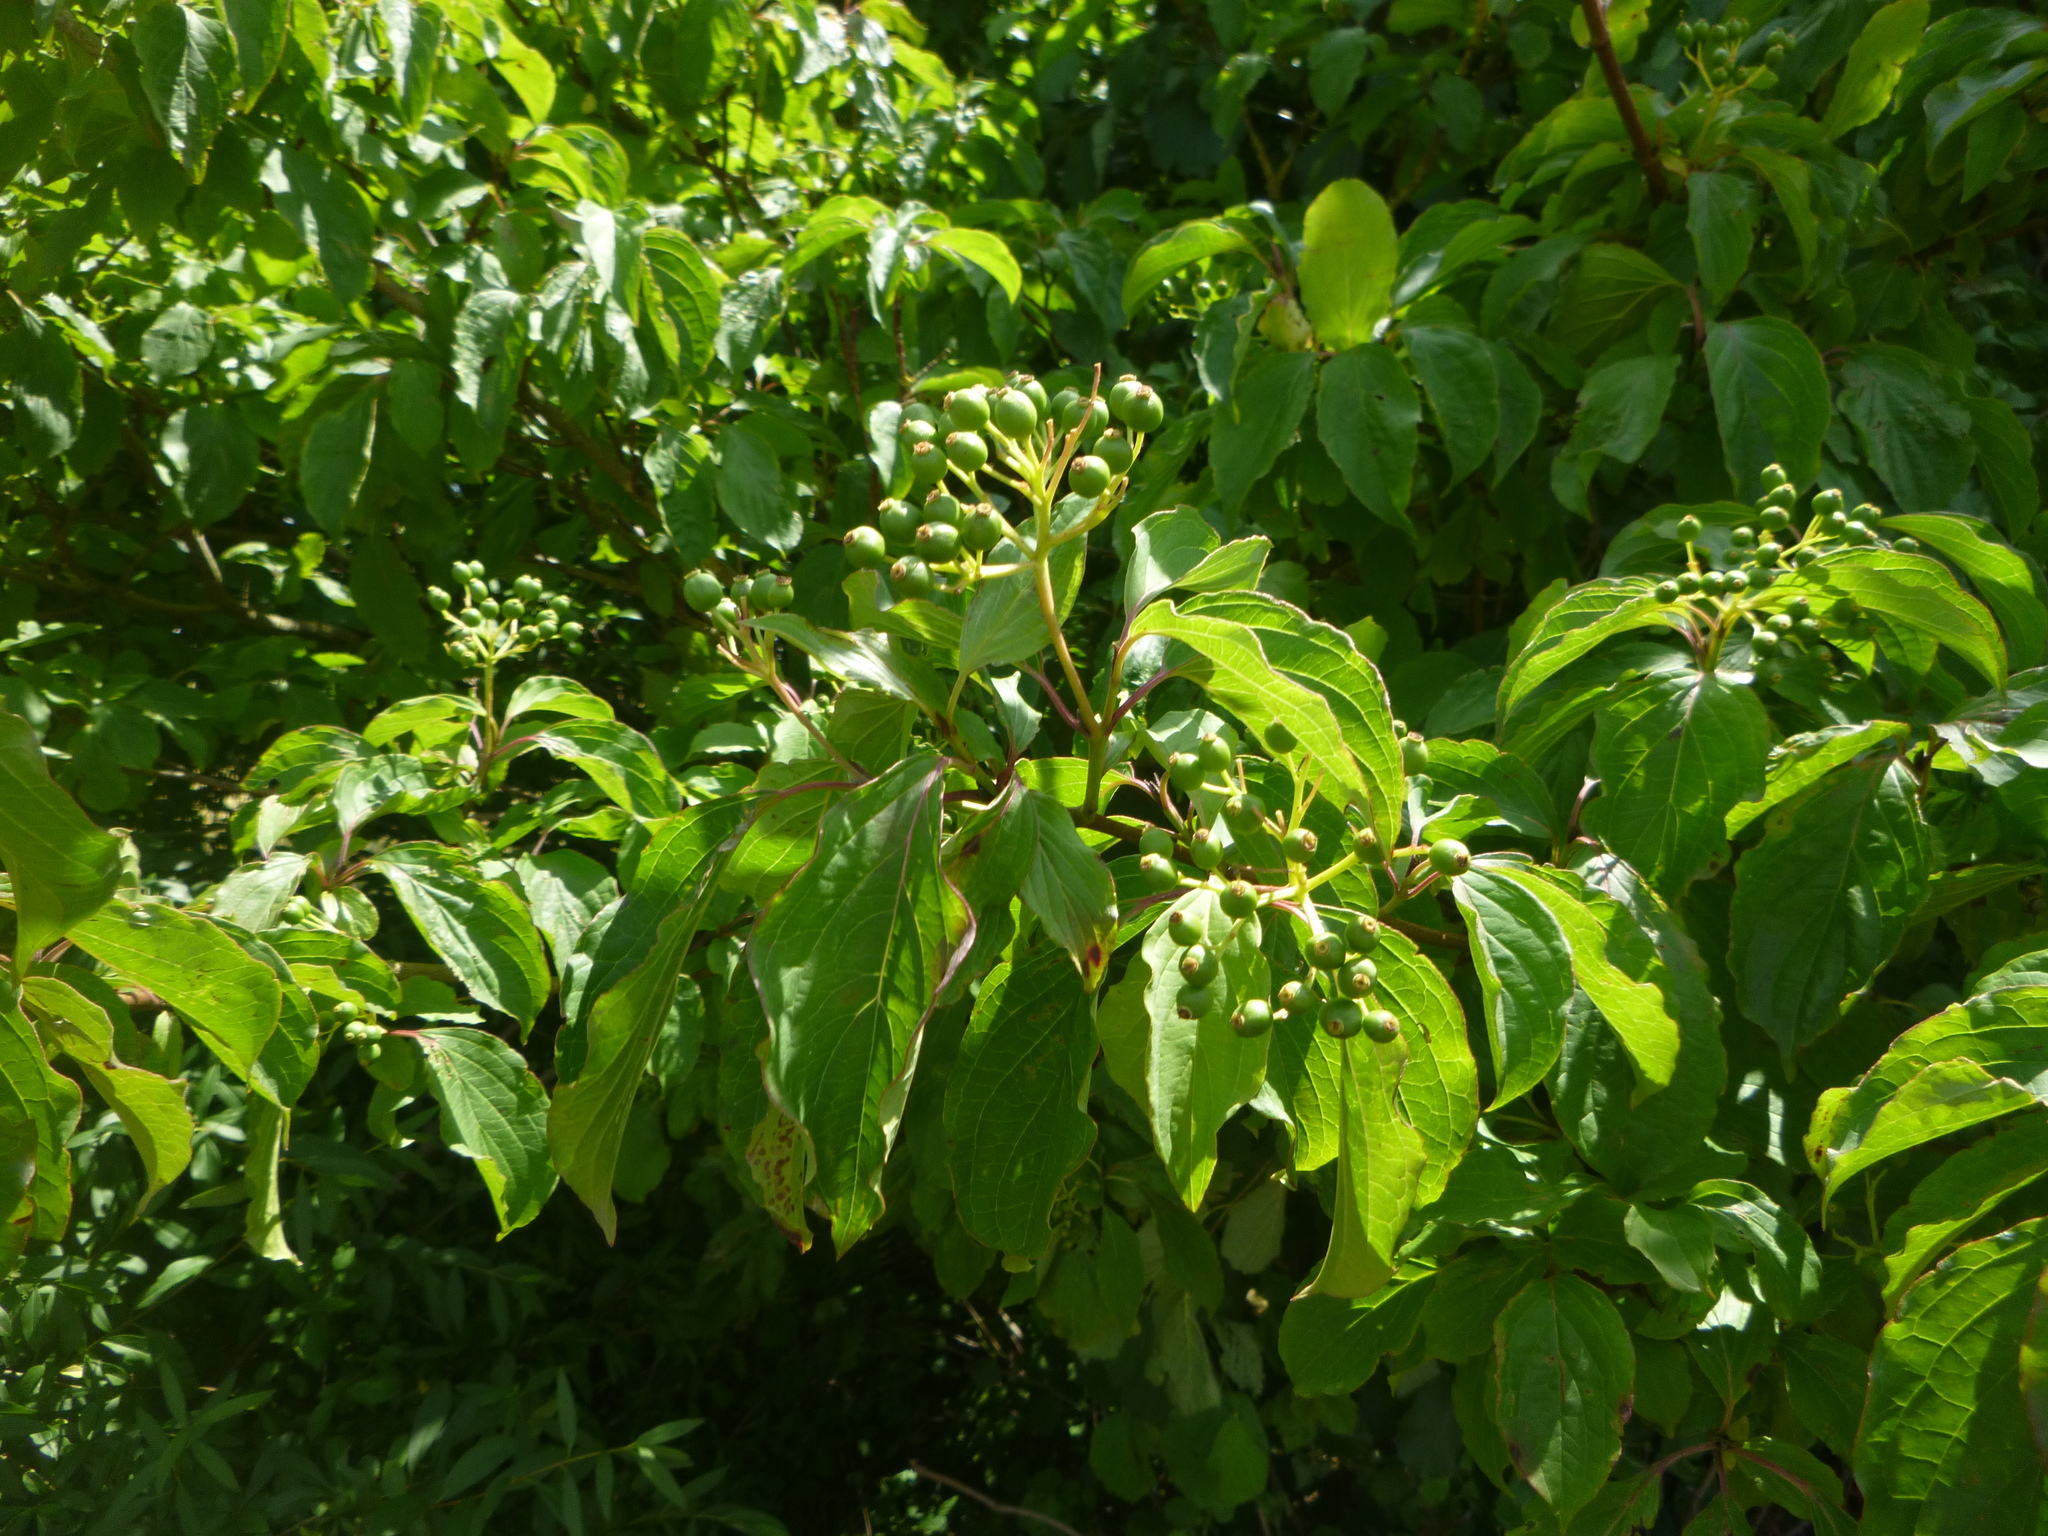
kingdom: Plantae
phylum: Tracheophyta
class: Magnoliopsida
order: Cornales
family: Cornaceae
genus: Cornus
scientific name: Cornus sanguinea
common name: Dogwood
